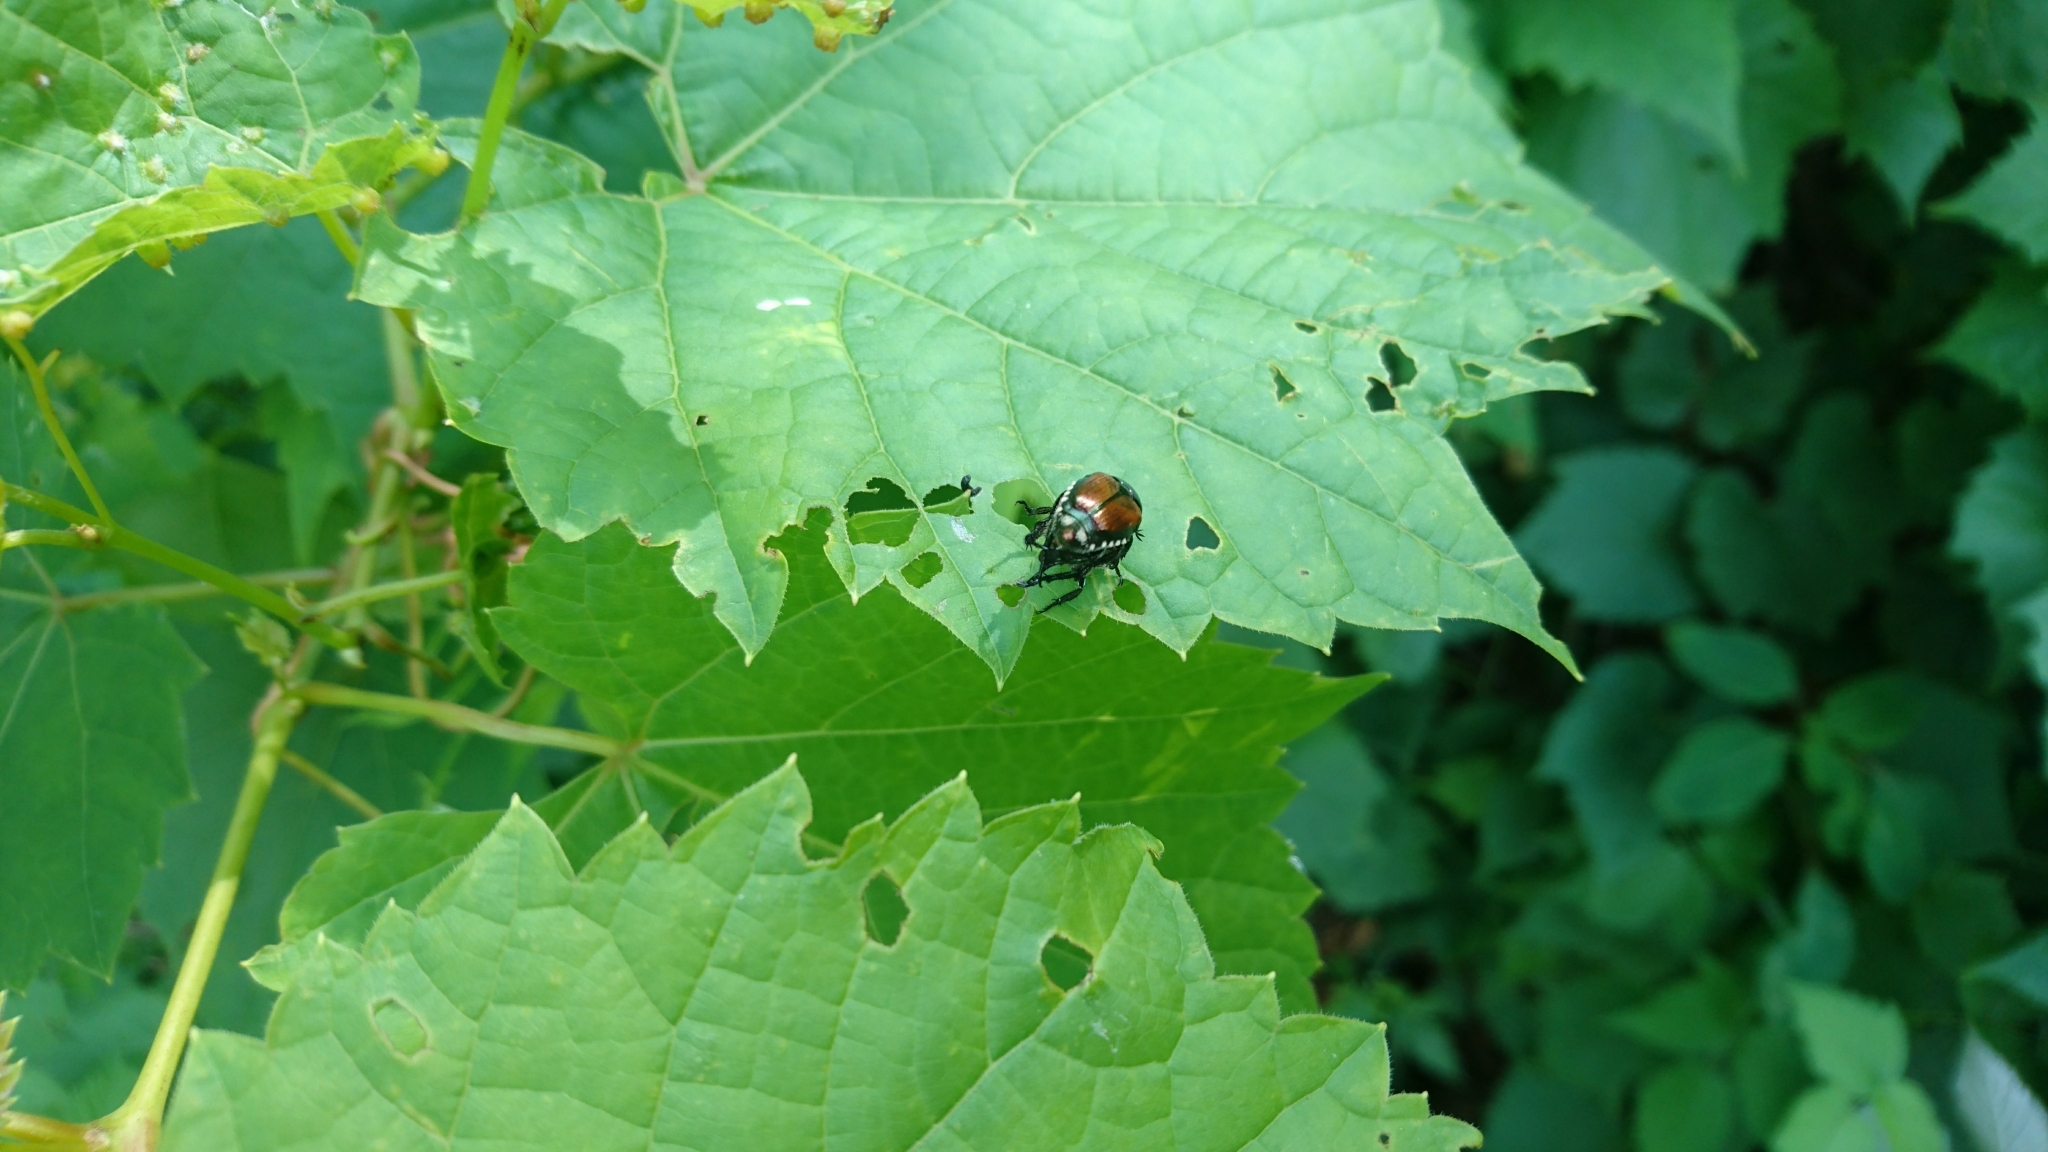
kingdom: Animalia
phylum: Arthropoda
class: Insecta
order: Coleoptera
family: Scarabaeidae
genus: Popillia
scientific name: Popillia japonica
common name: Japanese beetle
